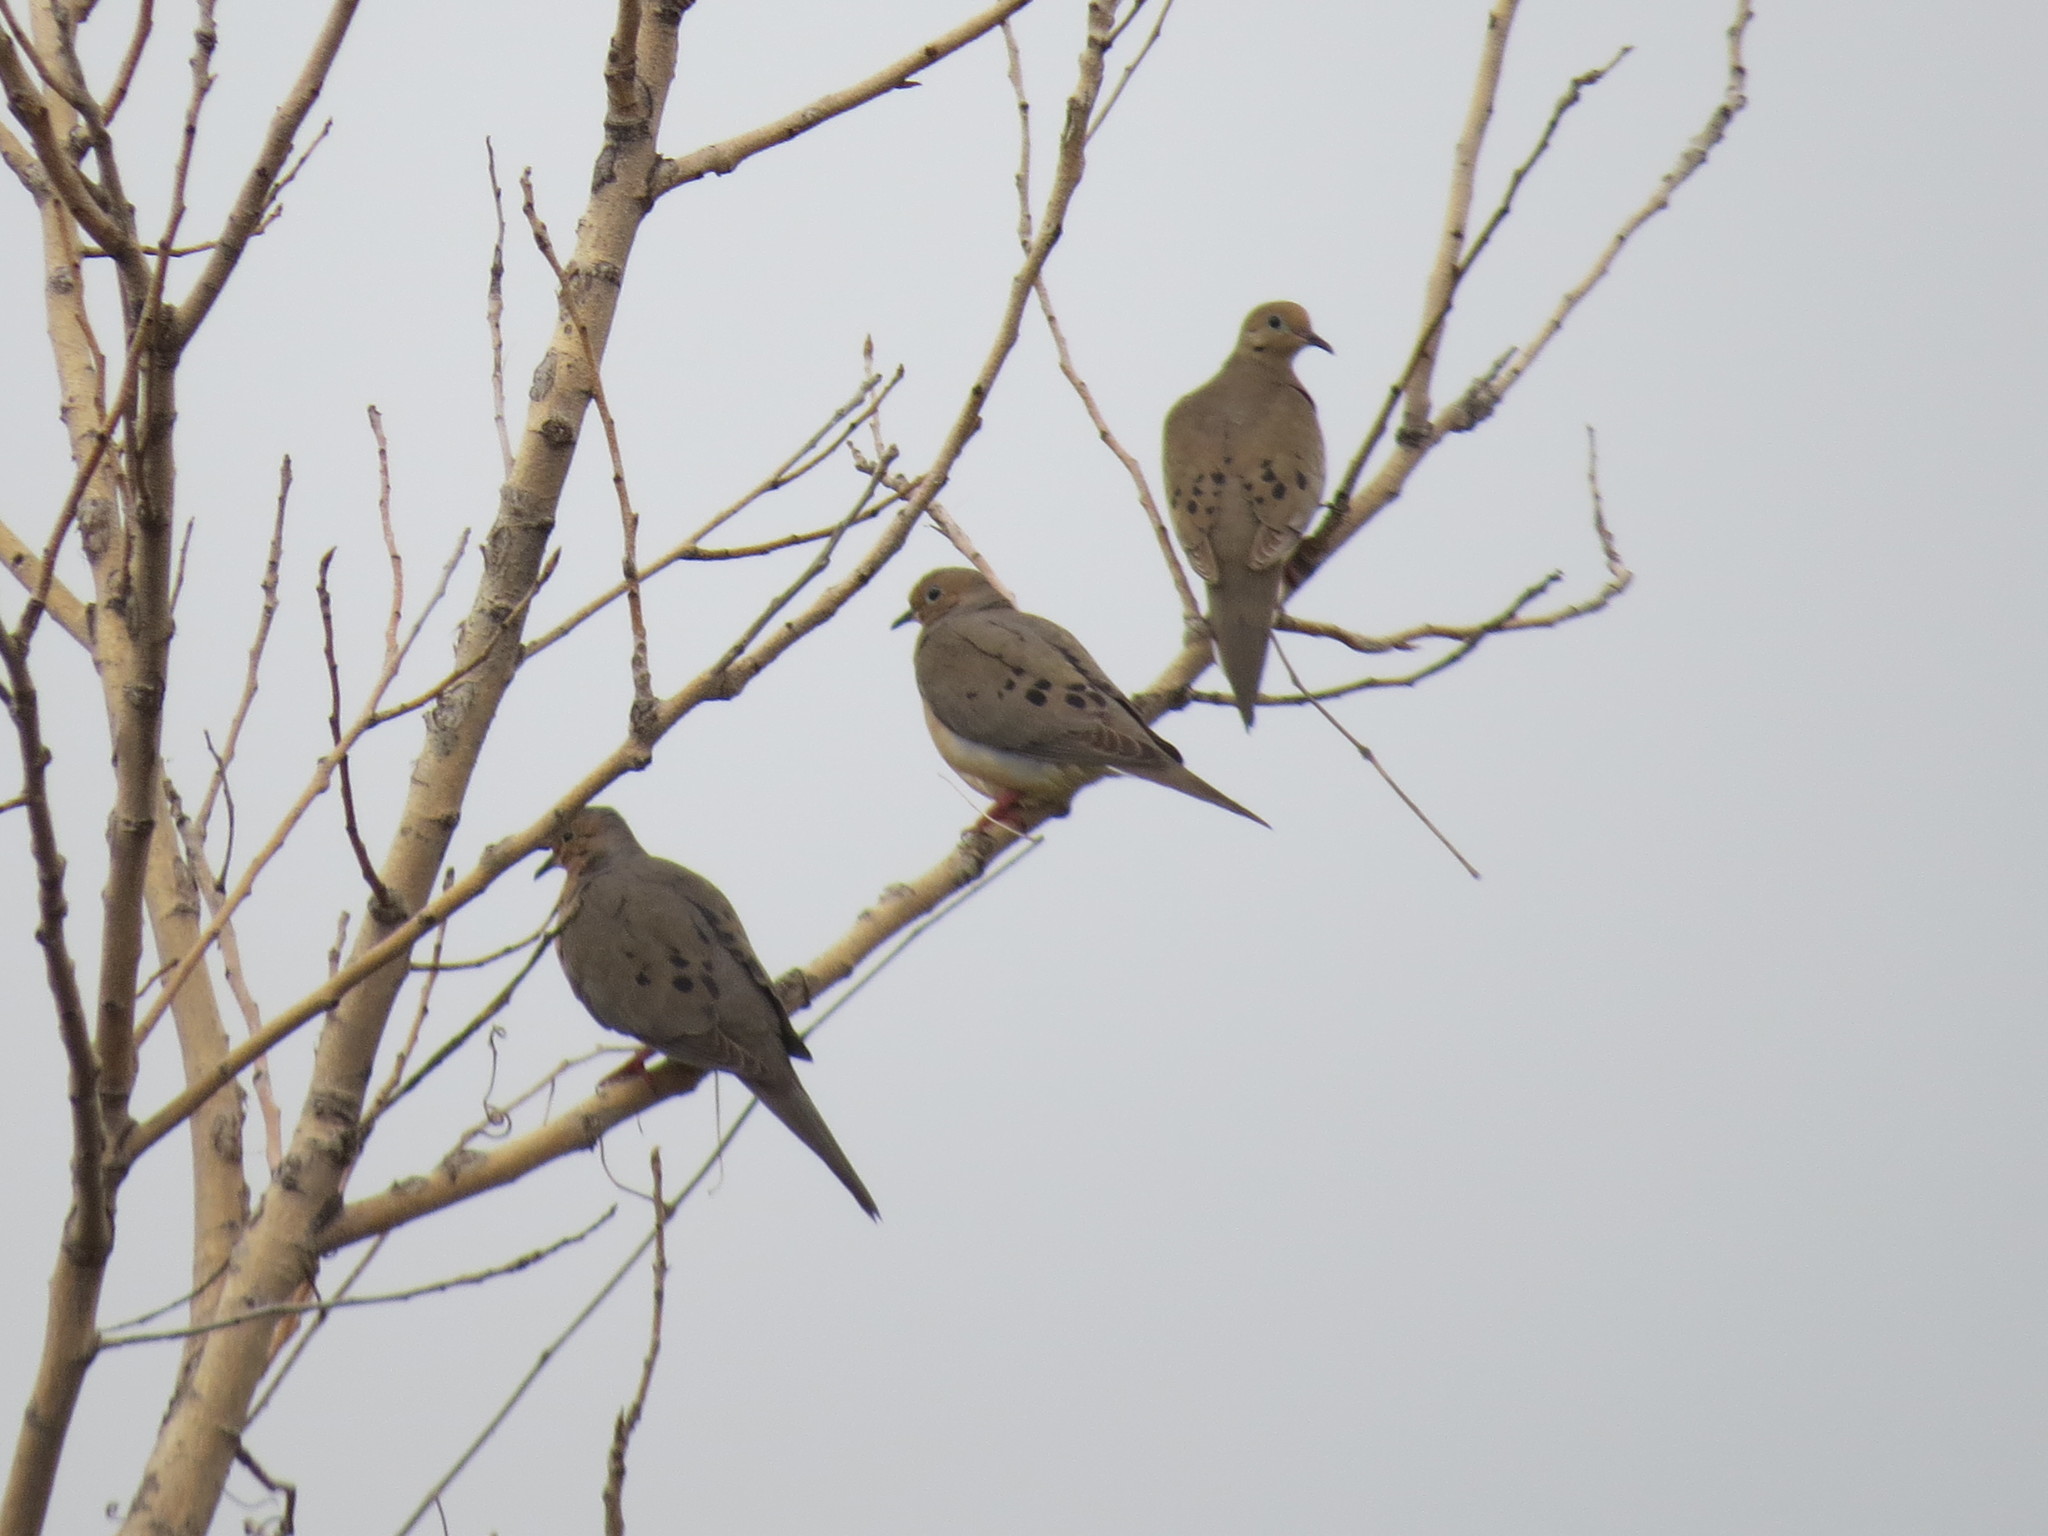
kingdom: Animalia
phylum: Chordata
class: Aves
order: Columbiformes
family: Columbidae
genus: Zenaida
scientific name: Zenaida macroura
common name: Mourning dove
